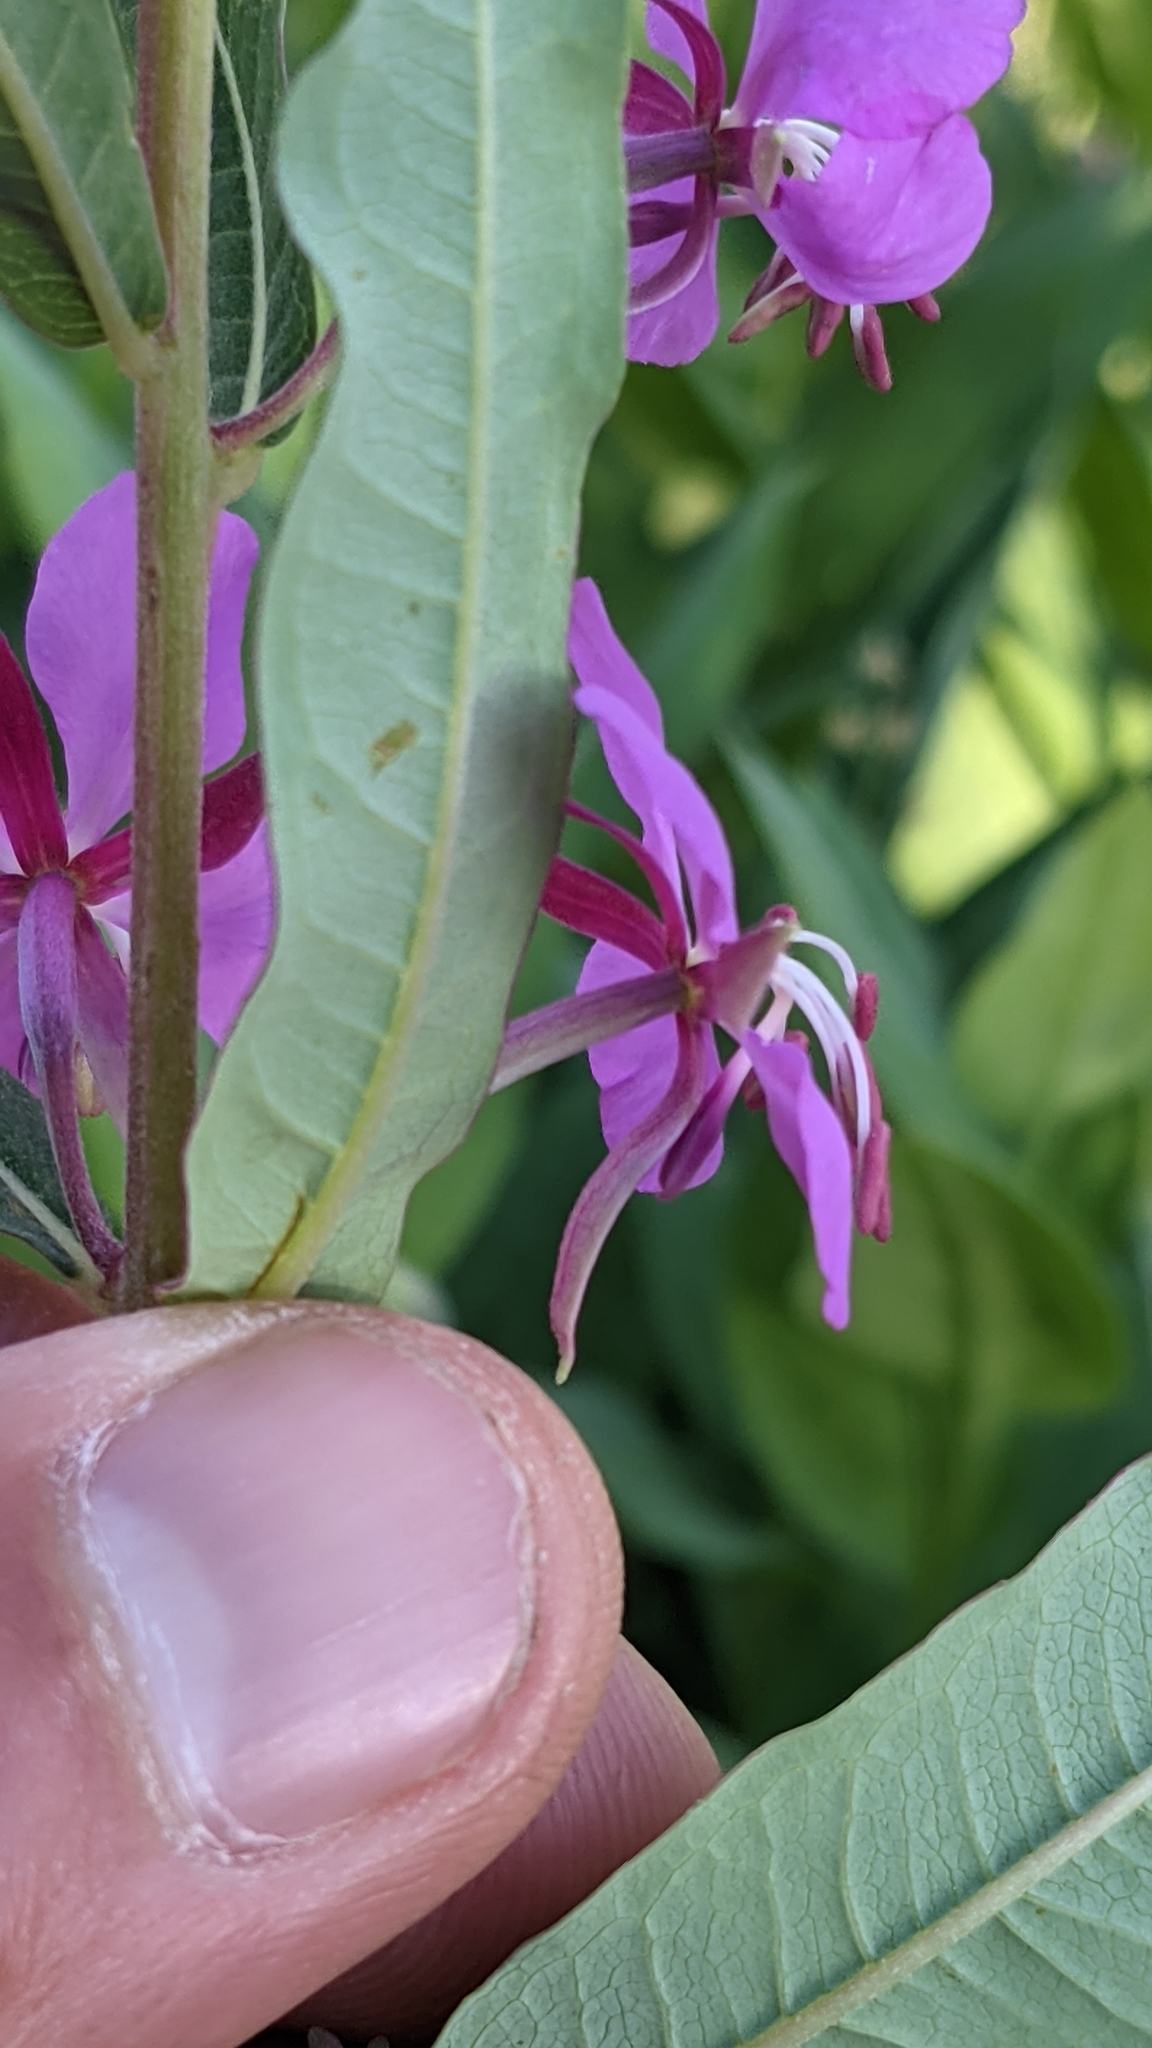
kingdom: Plantae
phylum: Tracheophyta
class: Magnoliopsida
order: Myrtales
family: Onagraceae
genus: Chamaenerion
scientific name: Chamaenerion angustifolium
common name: Fireweed
